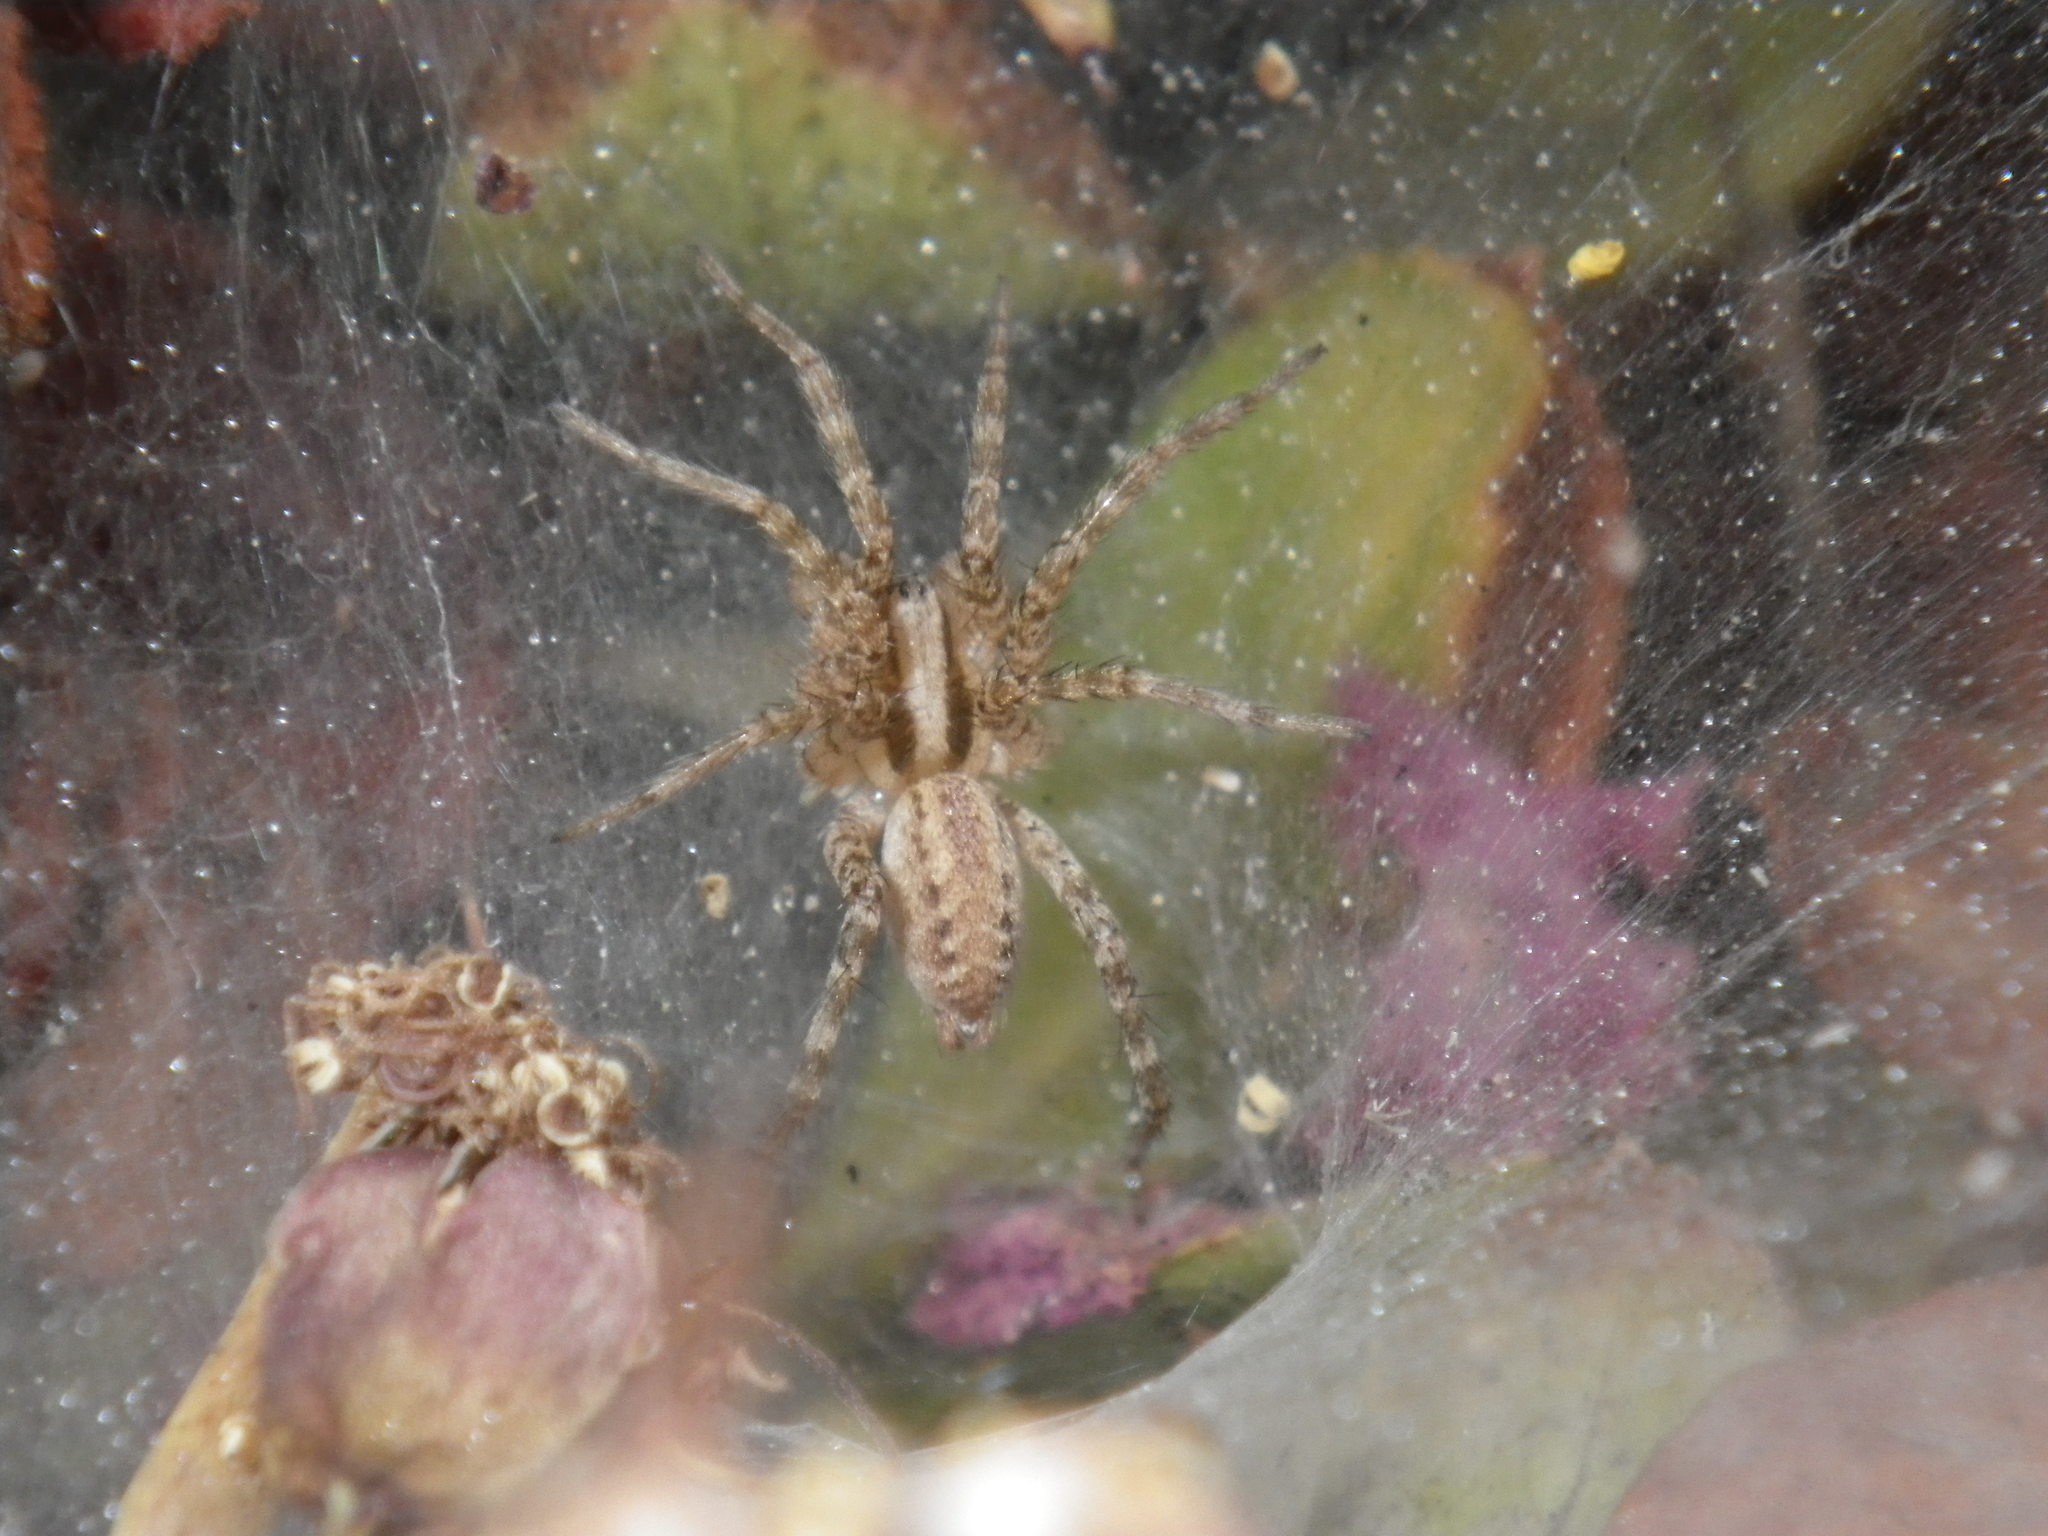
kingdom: Animalia
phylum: Arthropoda
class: Arachnida
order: Araneae
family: Agelenidae
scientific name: Agelenidae
